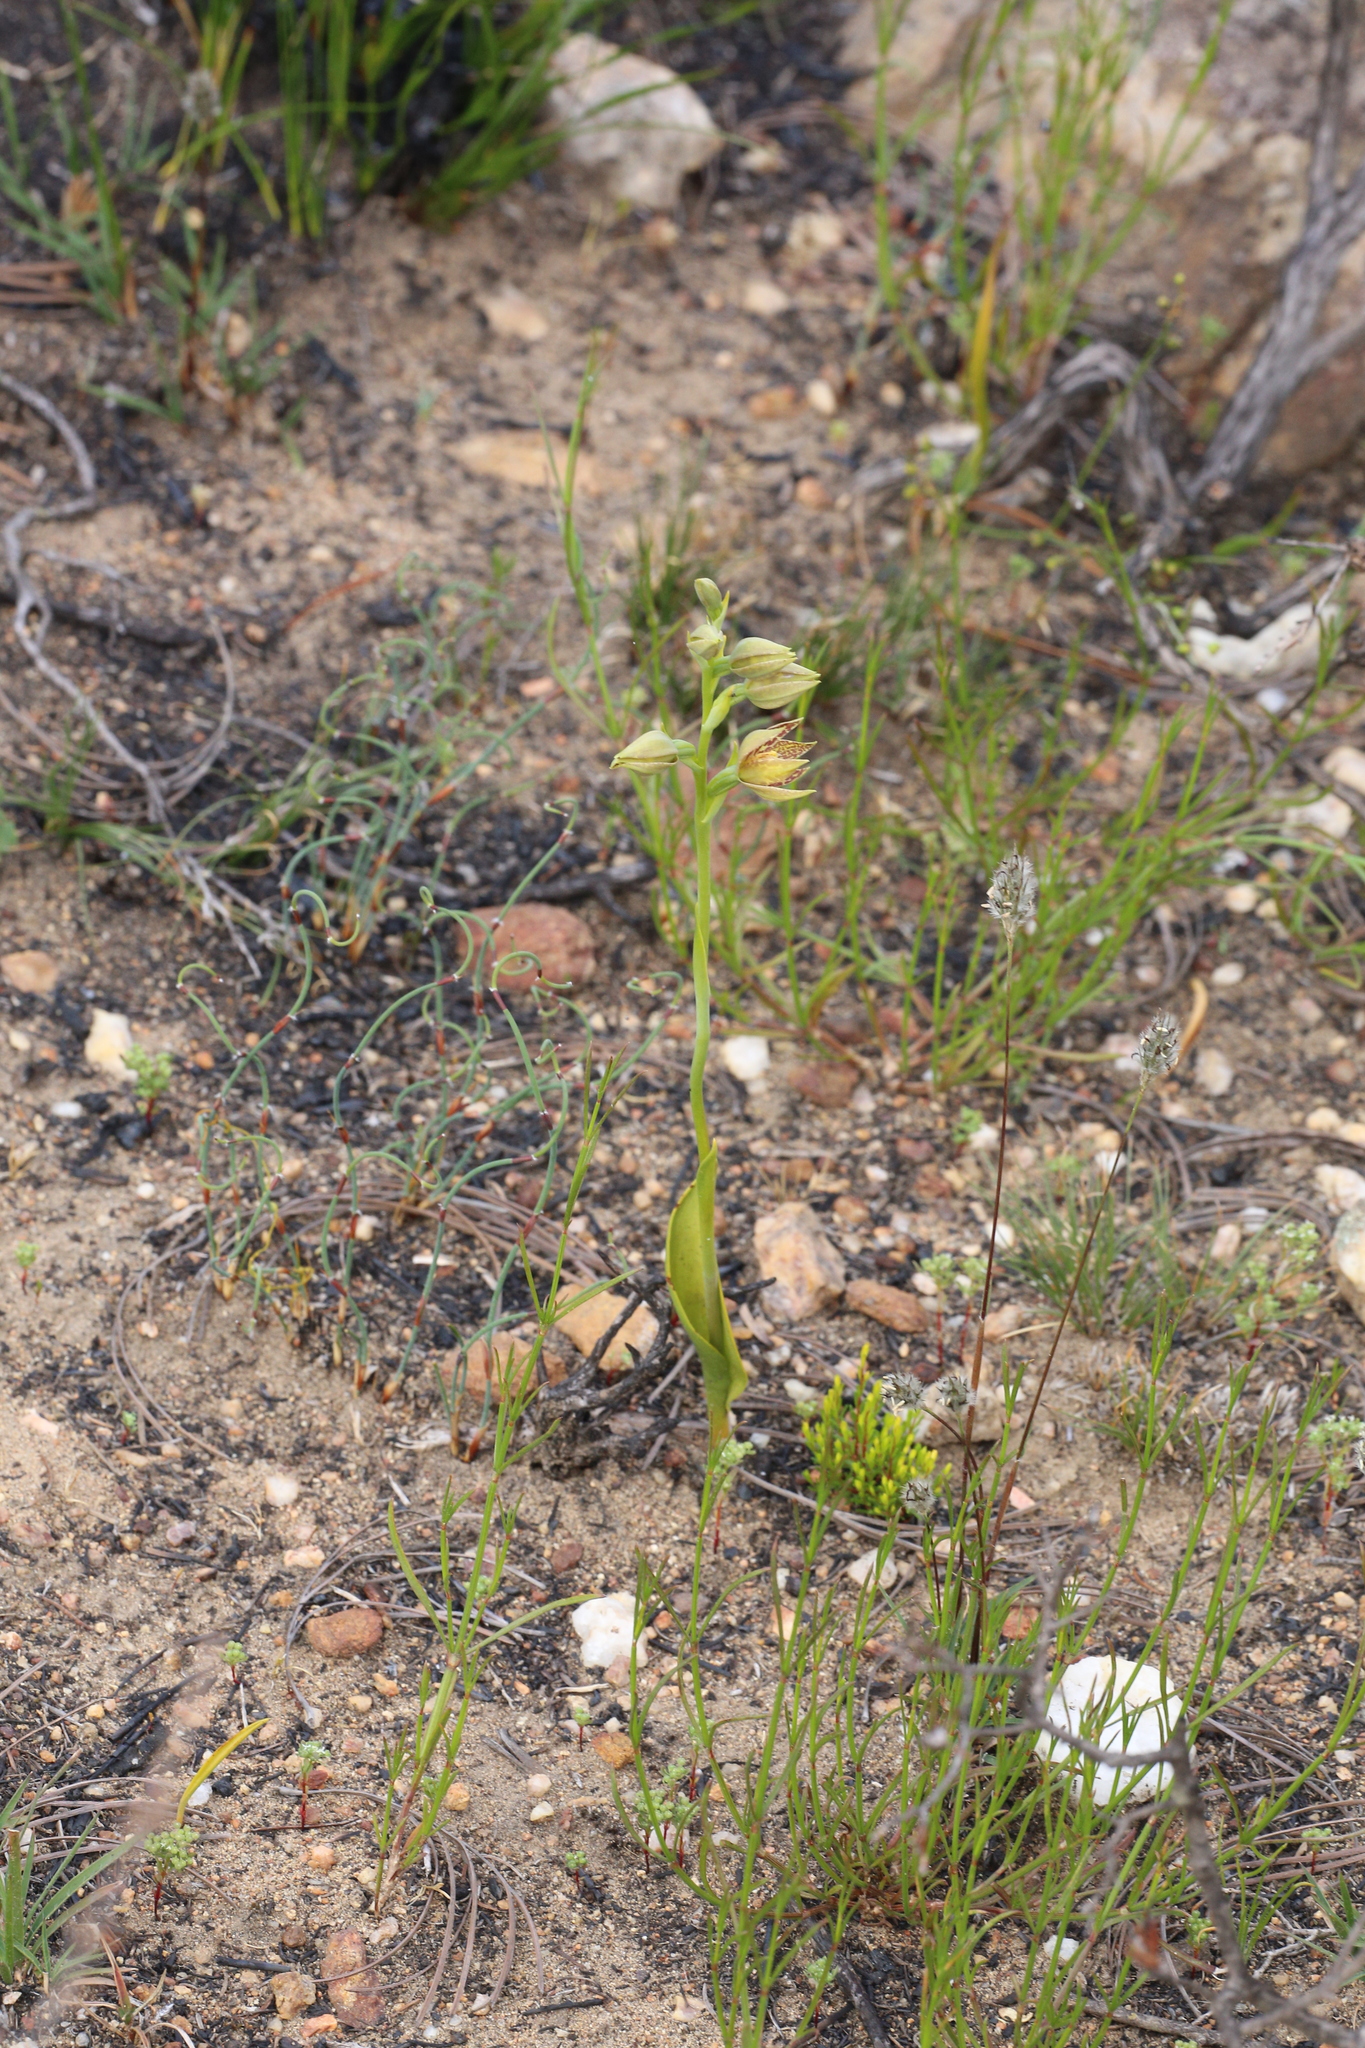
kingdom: Plantae
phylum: Tracheophyta
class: Liliopsida
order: Asparagales
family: Orchidaceae
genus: Thelymitra
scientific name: Thelymitra benthamiana
